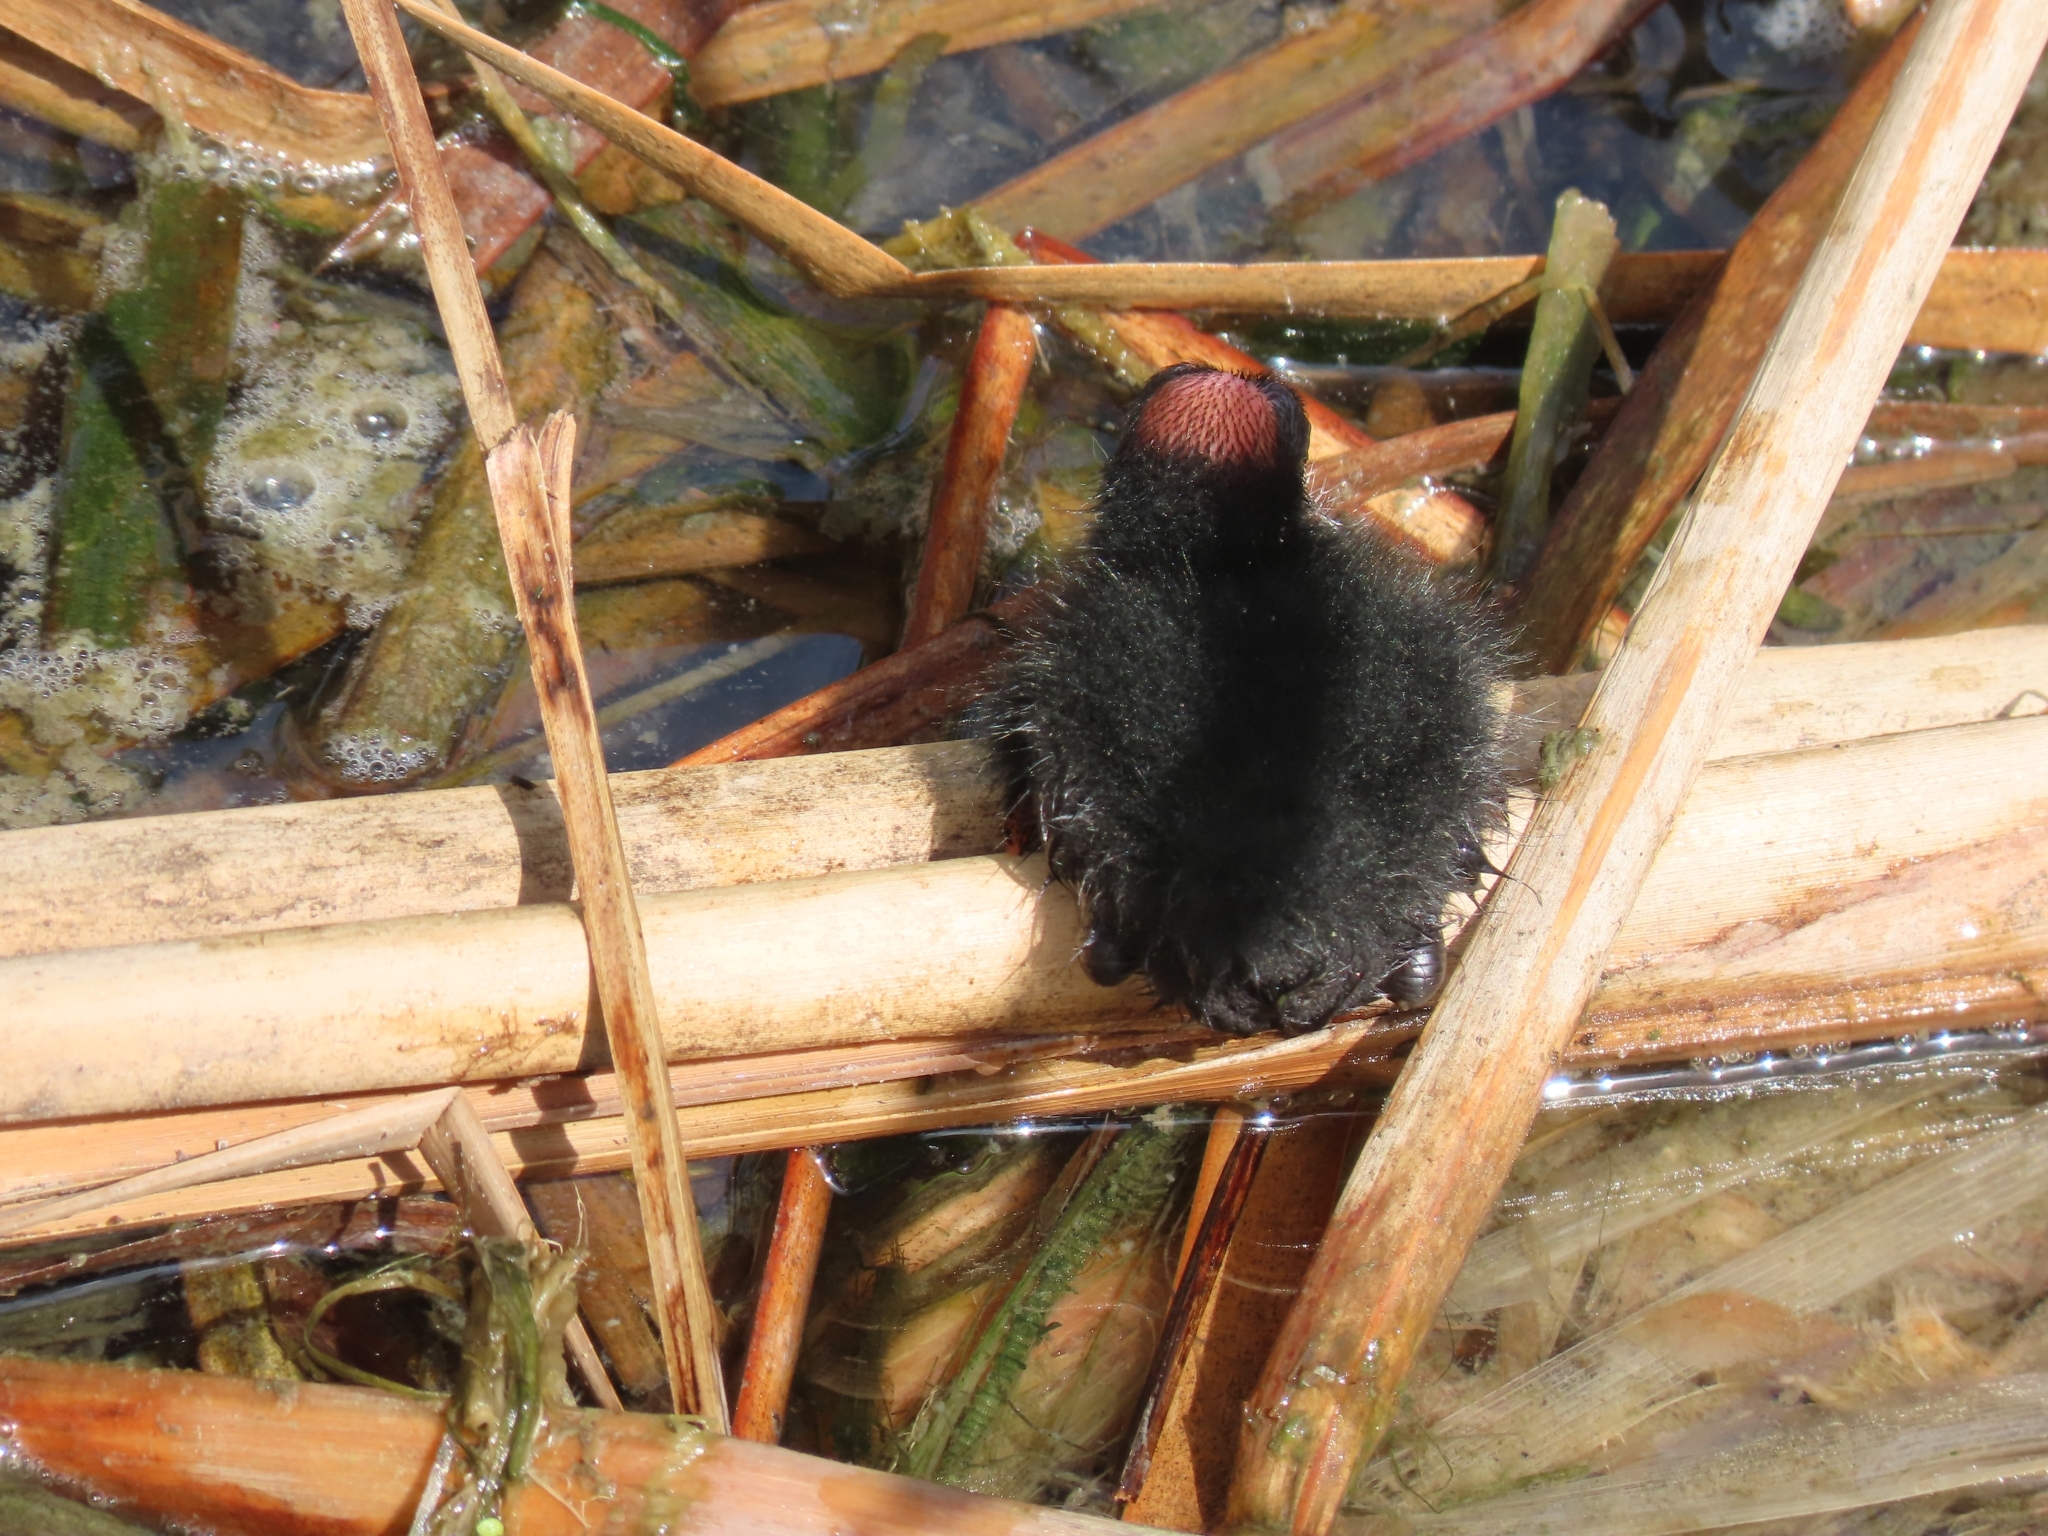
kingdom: Animalia
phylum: Chordata
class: Aves
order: Gruiformes
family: Rallidae
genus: Gallinula
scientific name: Gallinula chloropus
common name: Common moorhen
